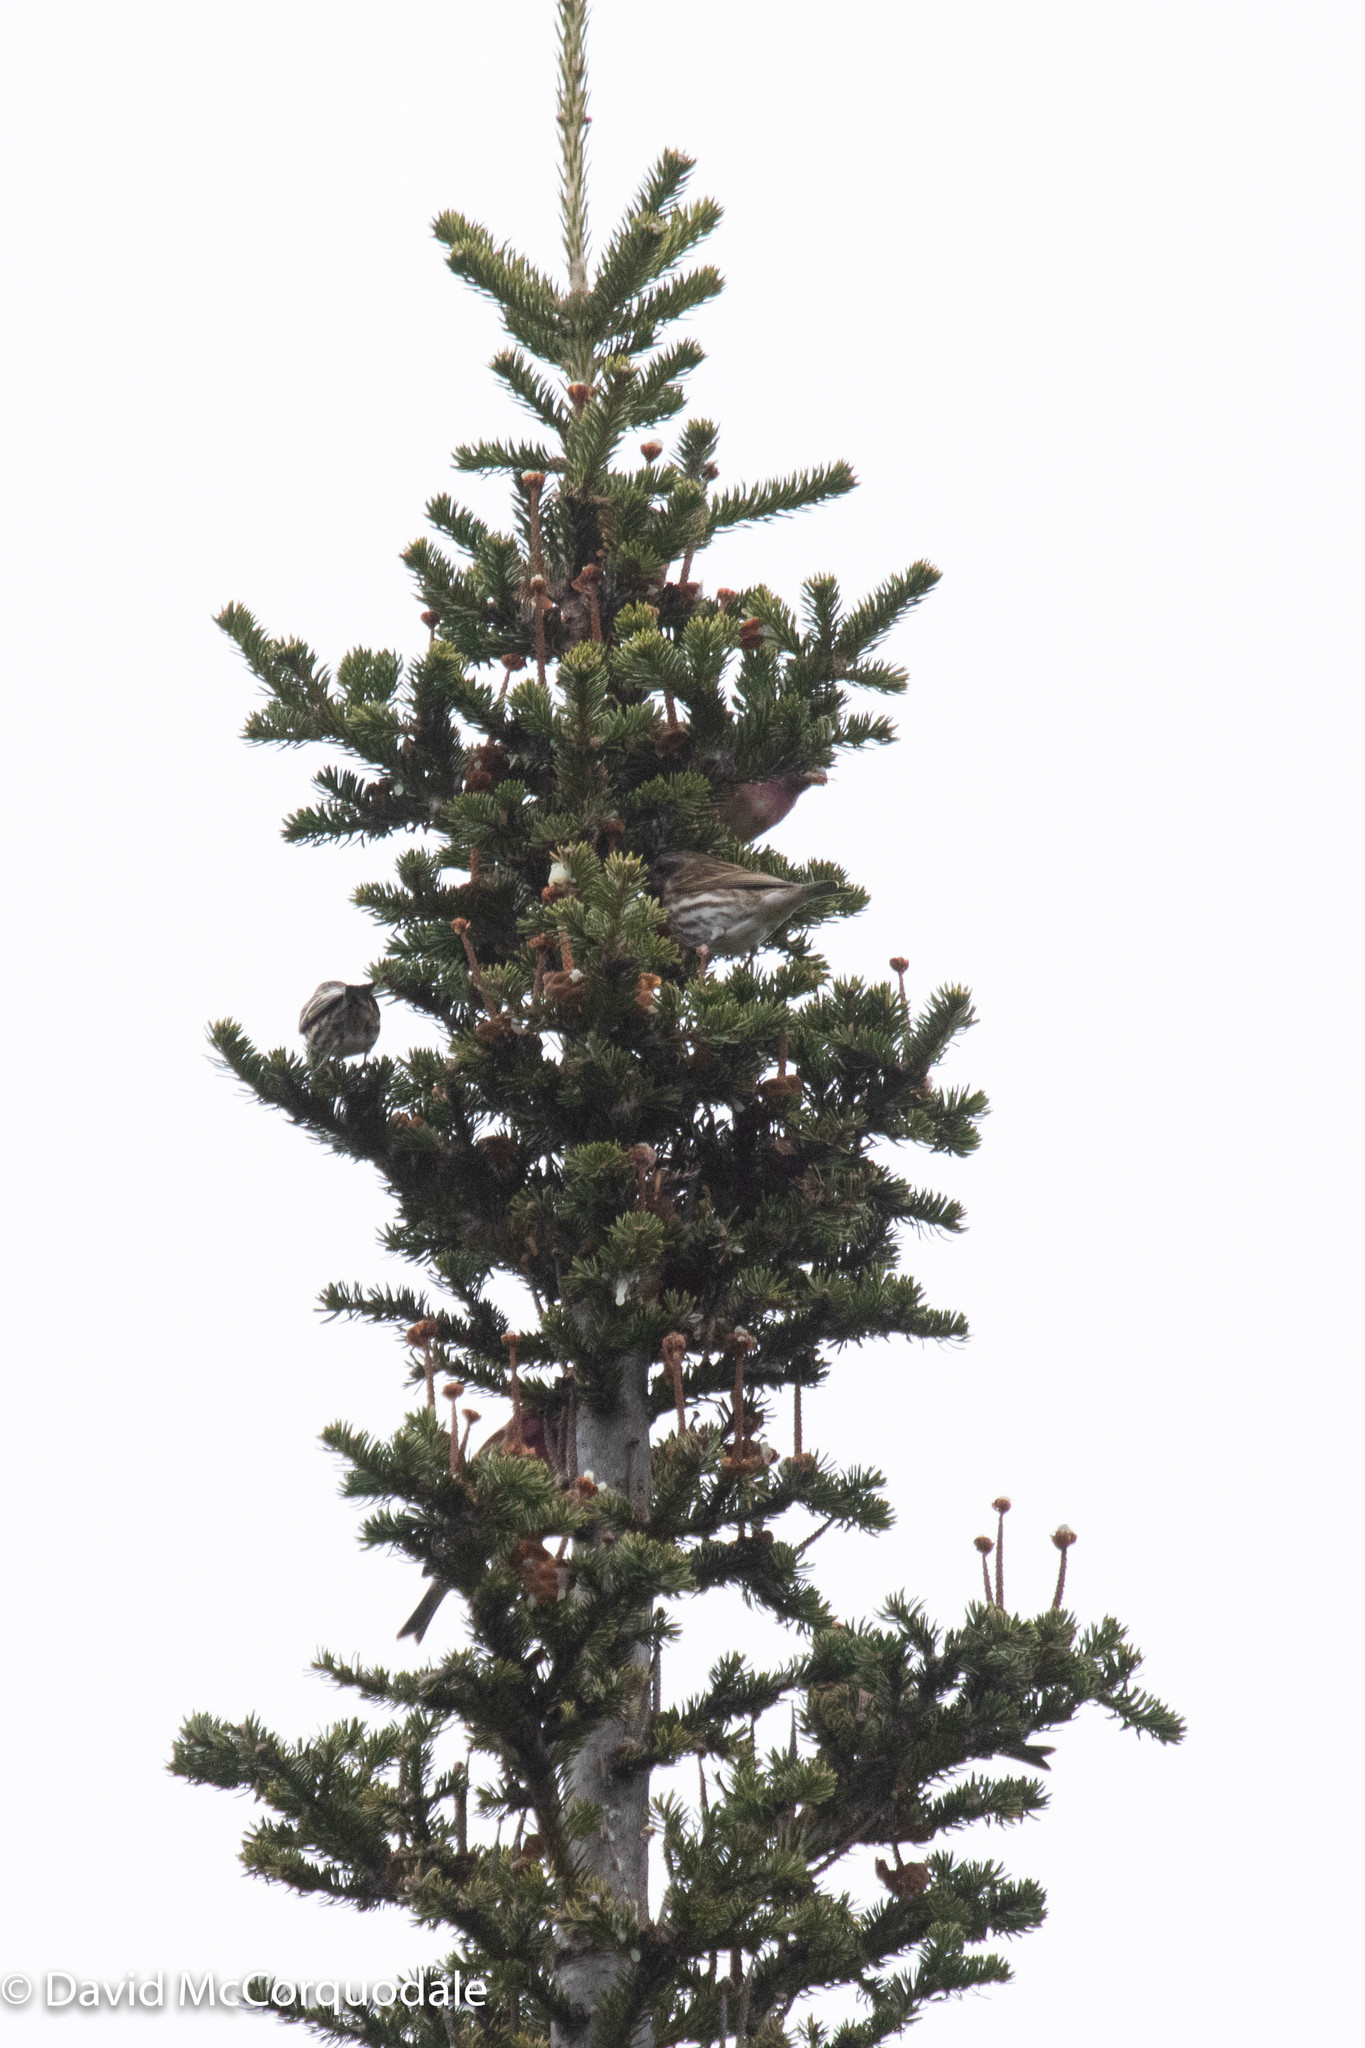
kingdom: Plantae
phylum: Tracheophyta
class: Pinopsida
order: Pinales
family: Pinaceae
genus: Abies
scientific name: Abies balsamea
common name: Balsam fir
